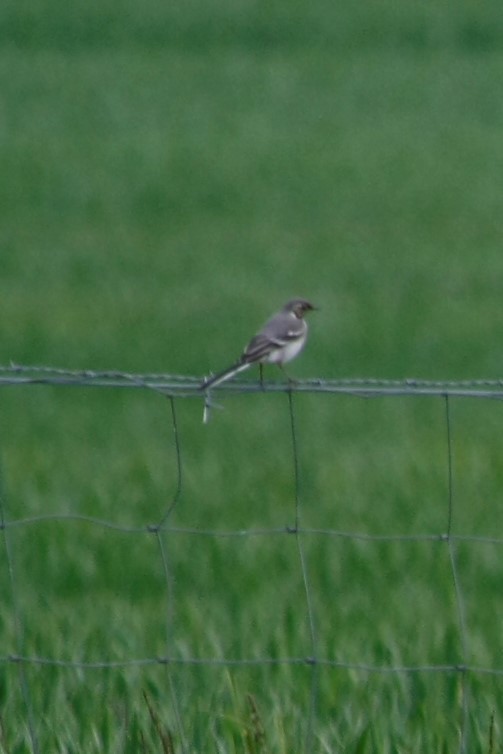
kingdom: Animalia
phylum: Chordata
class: Aves
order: Passeriformes
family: Motacillidae
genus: Motacilla
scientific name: Motacilla alba
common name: White wagtail
